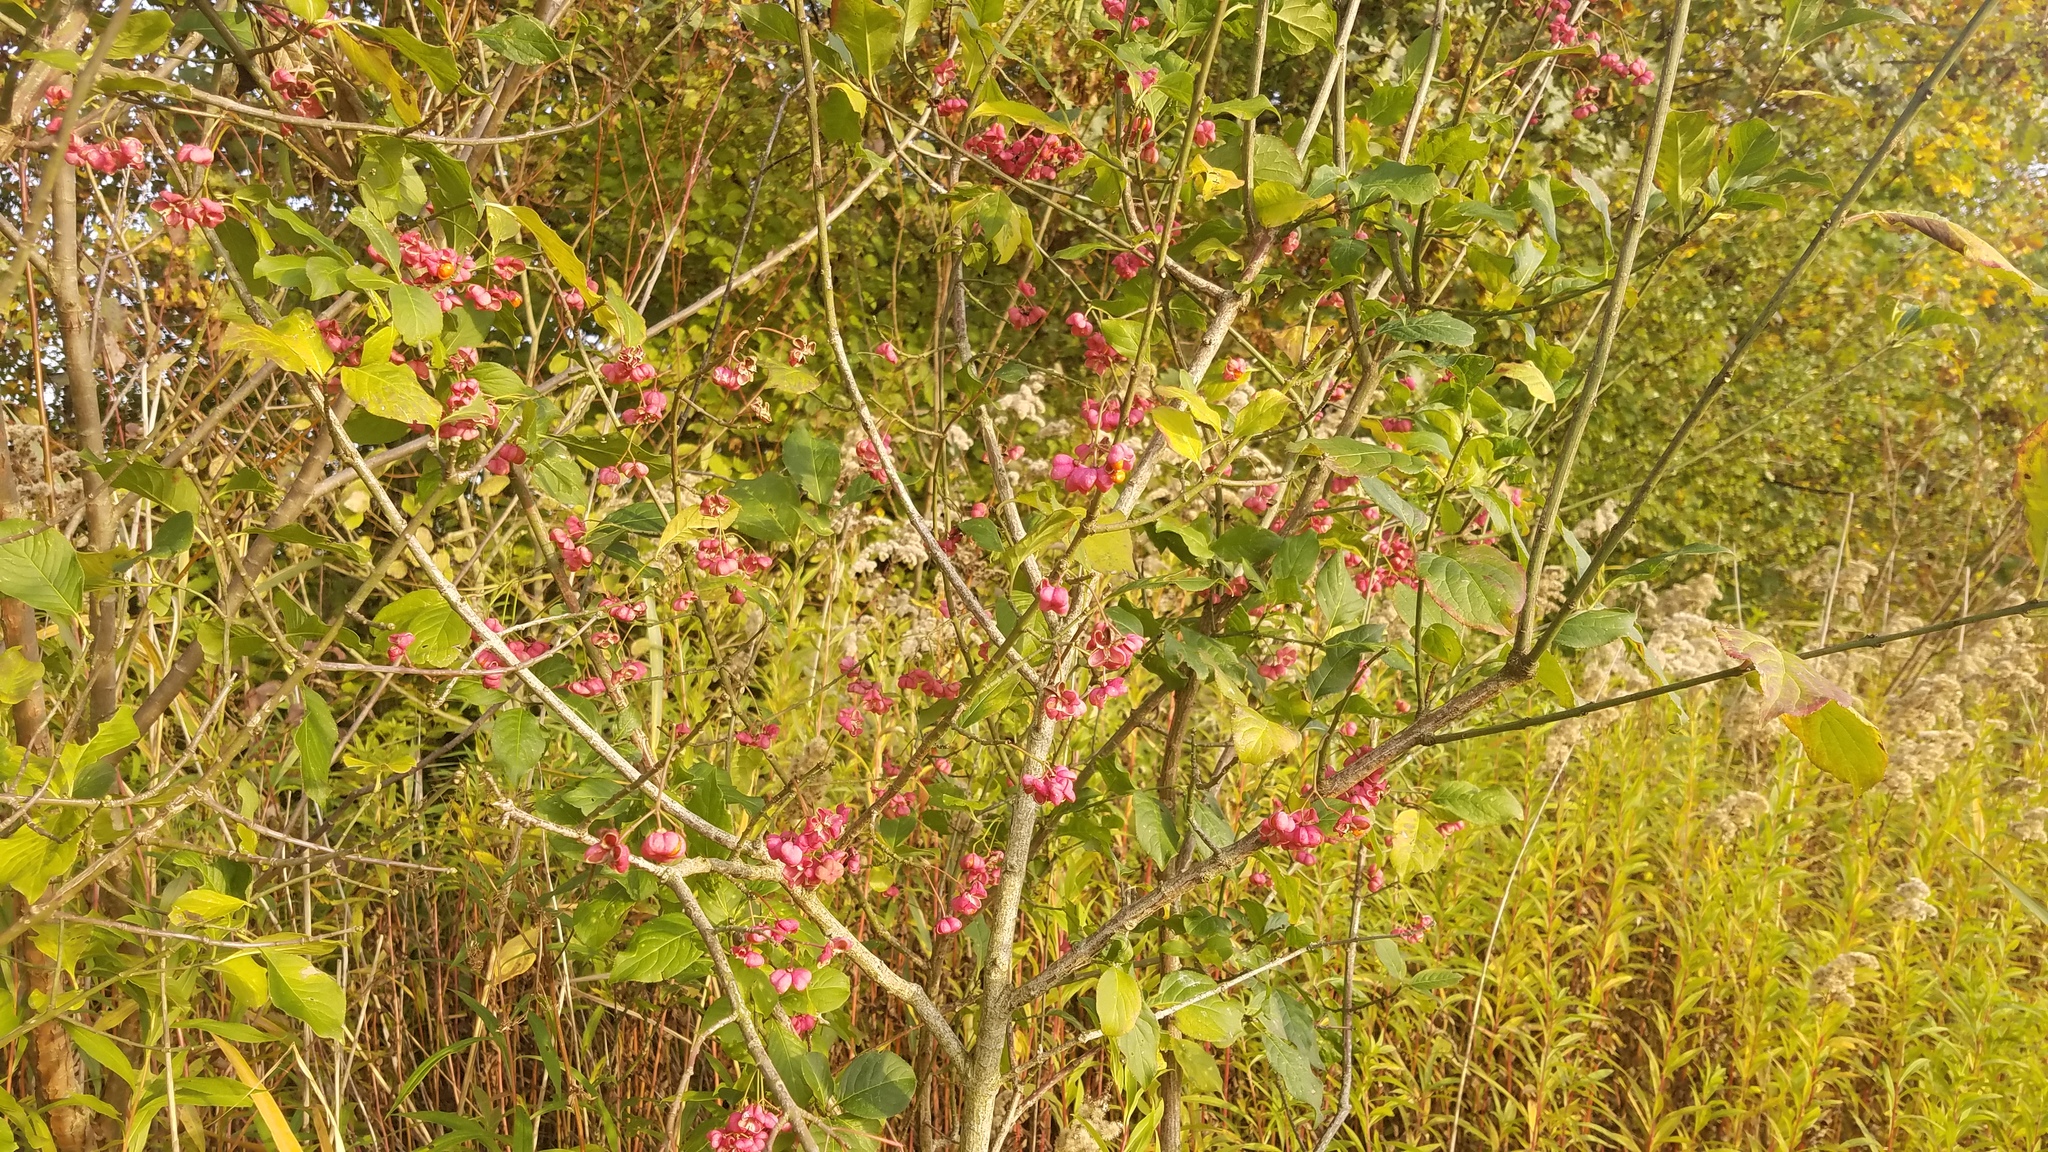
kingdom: Plantae
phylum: Tracheophyta
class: Magnoliopsida
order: Celastrales
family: Celastraceae
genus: Euonymus
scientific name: Euonymus europaeus
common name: Spindle
